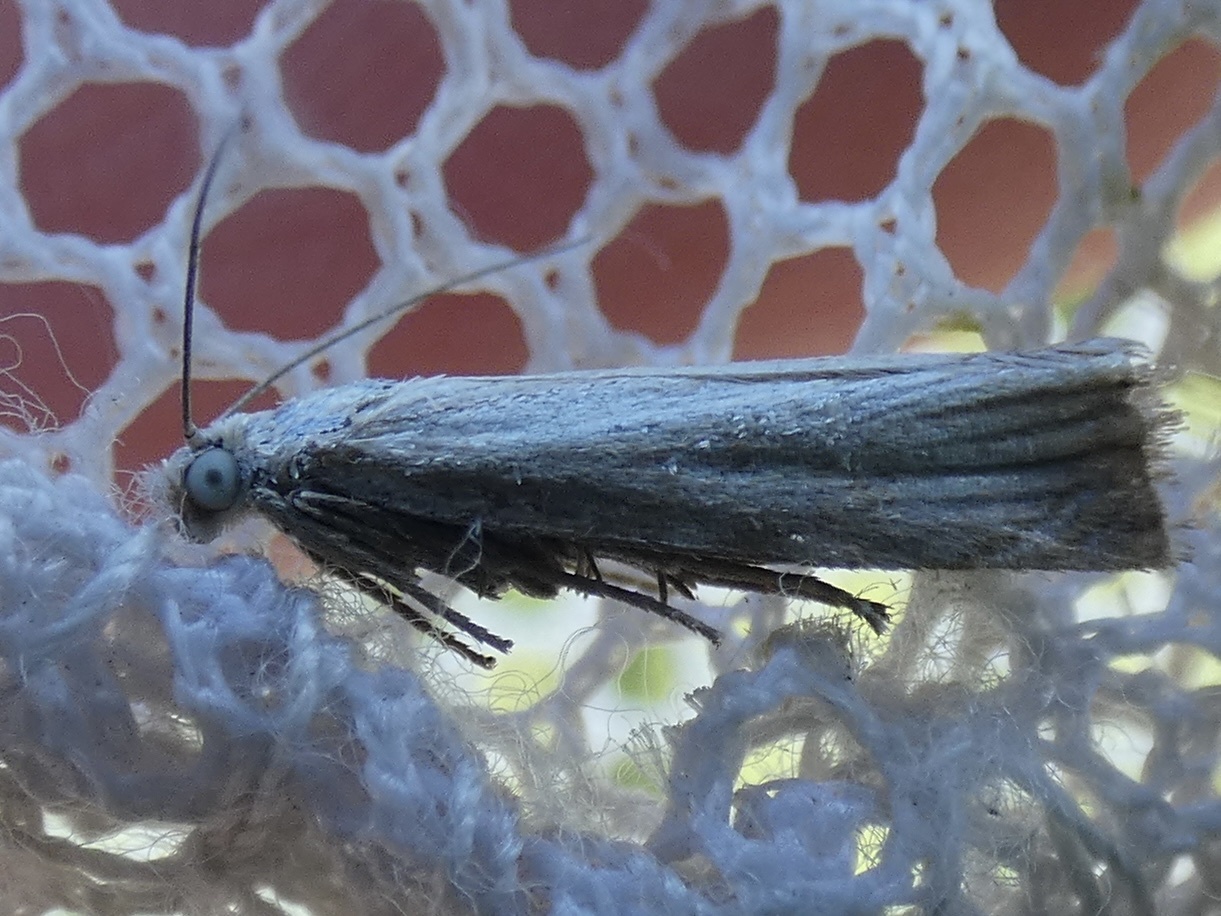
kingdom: Animalia
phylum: Arthropoda
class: Insecta
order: Lepidoptera
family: Crambidae
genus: Chrysoteuchia
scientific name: Chrysoteuchia culmella
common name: Garden grass-veneer
